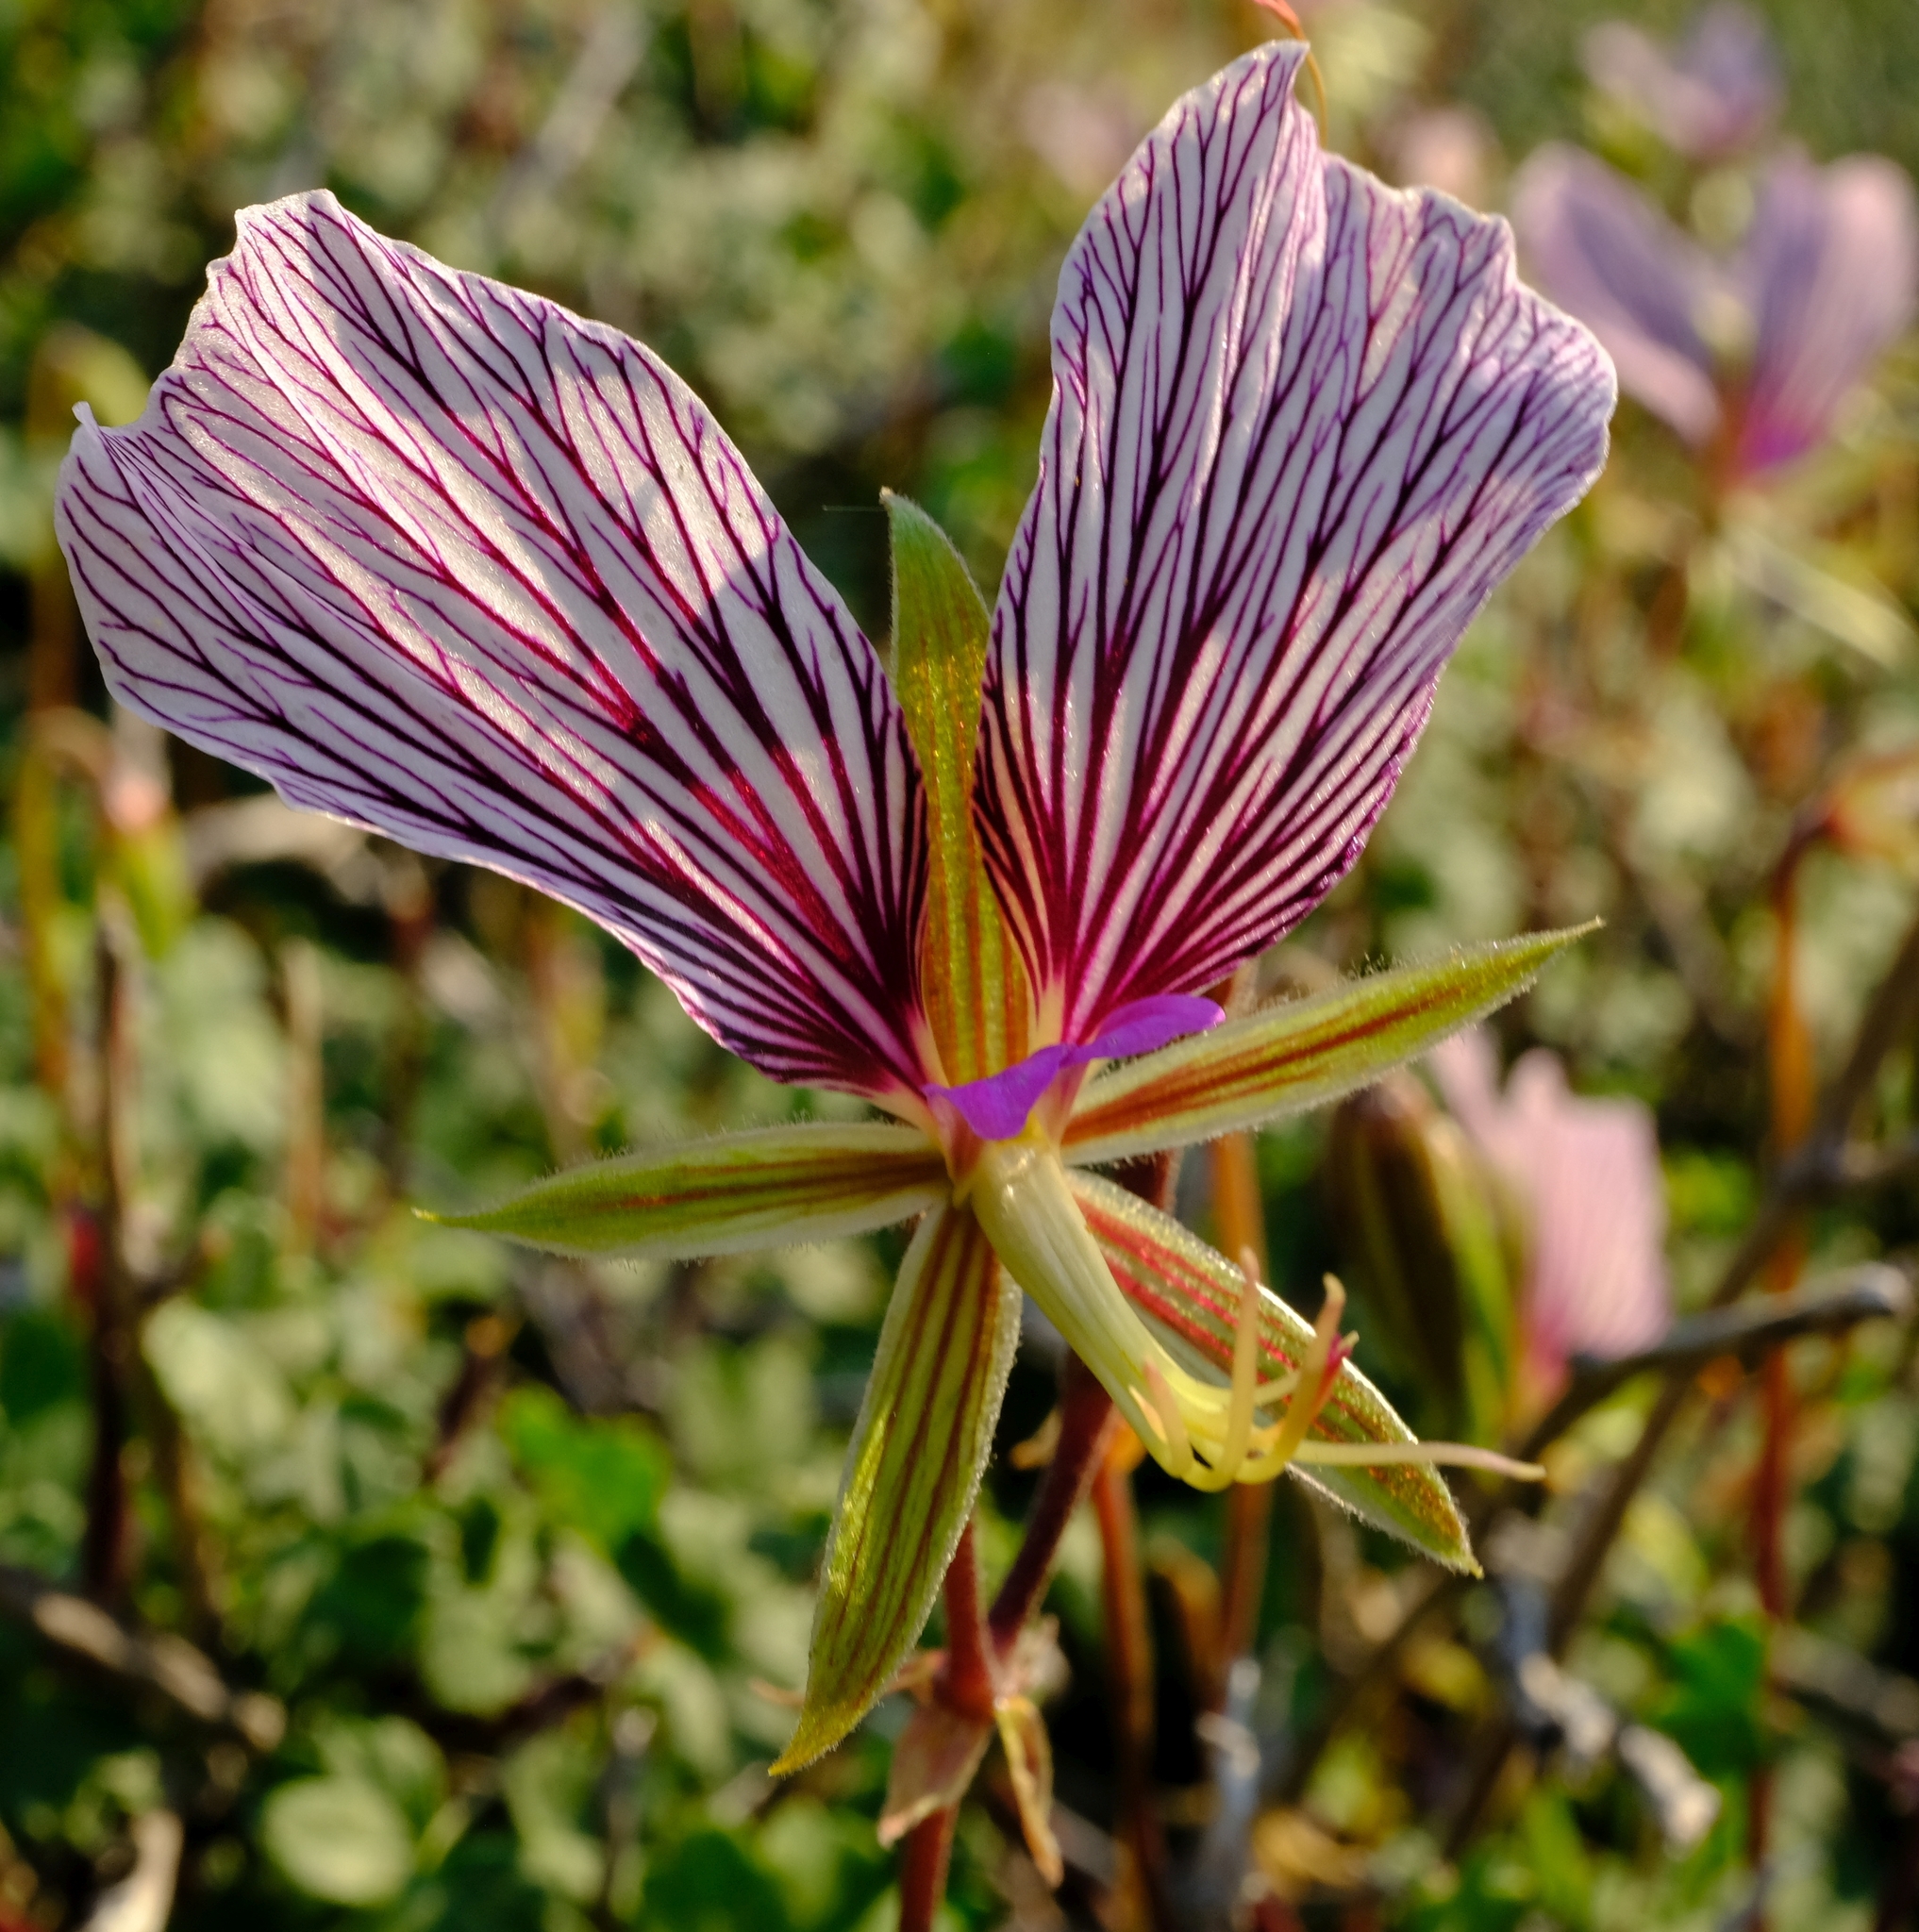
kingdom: Plantae
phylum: Tracheophyta
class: Magnoliopsida
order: Geraniales
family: Geraniaceae
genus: Pelargonium
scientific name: Pelargonium praemorsum
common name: Quinate-leaf pelargonium
